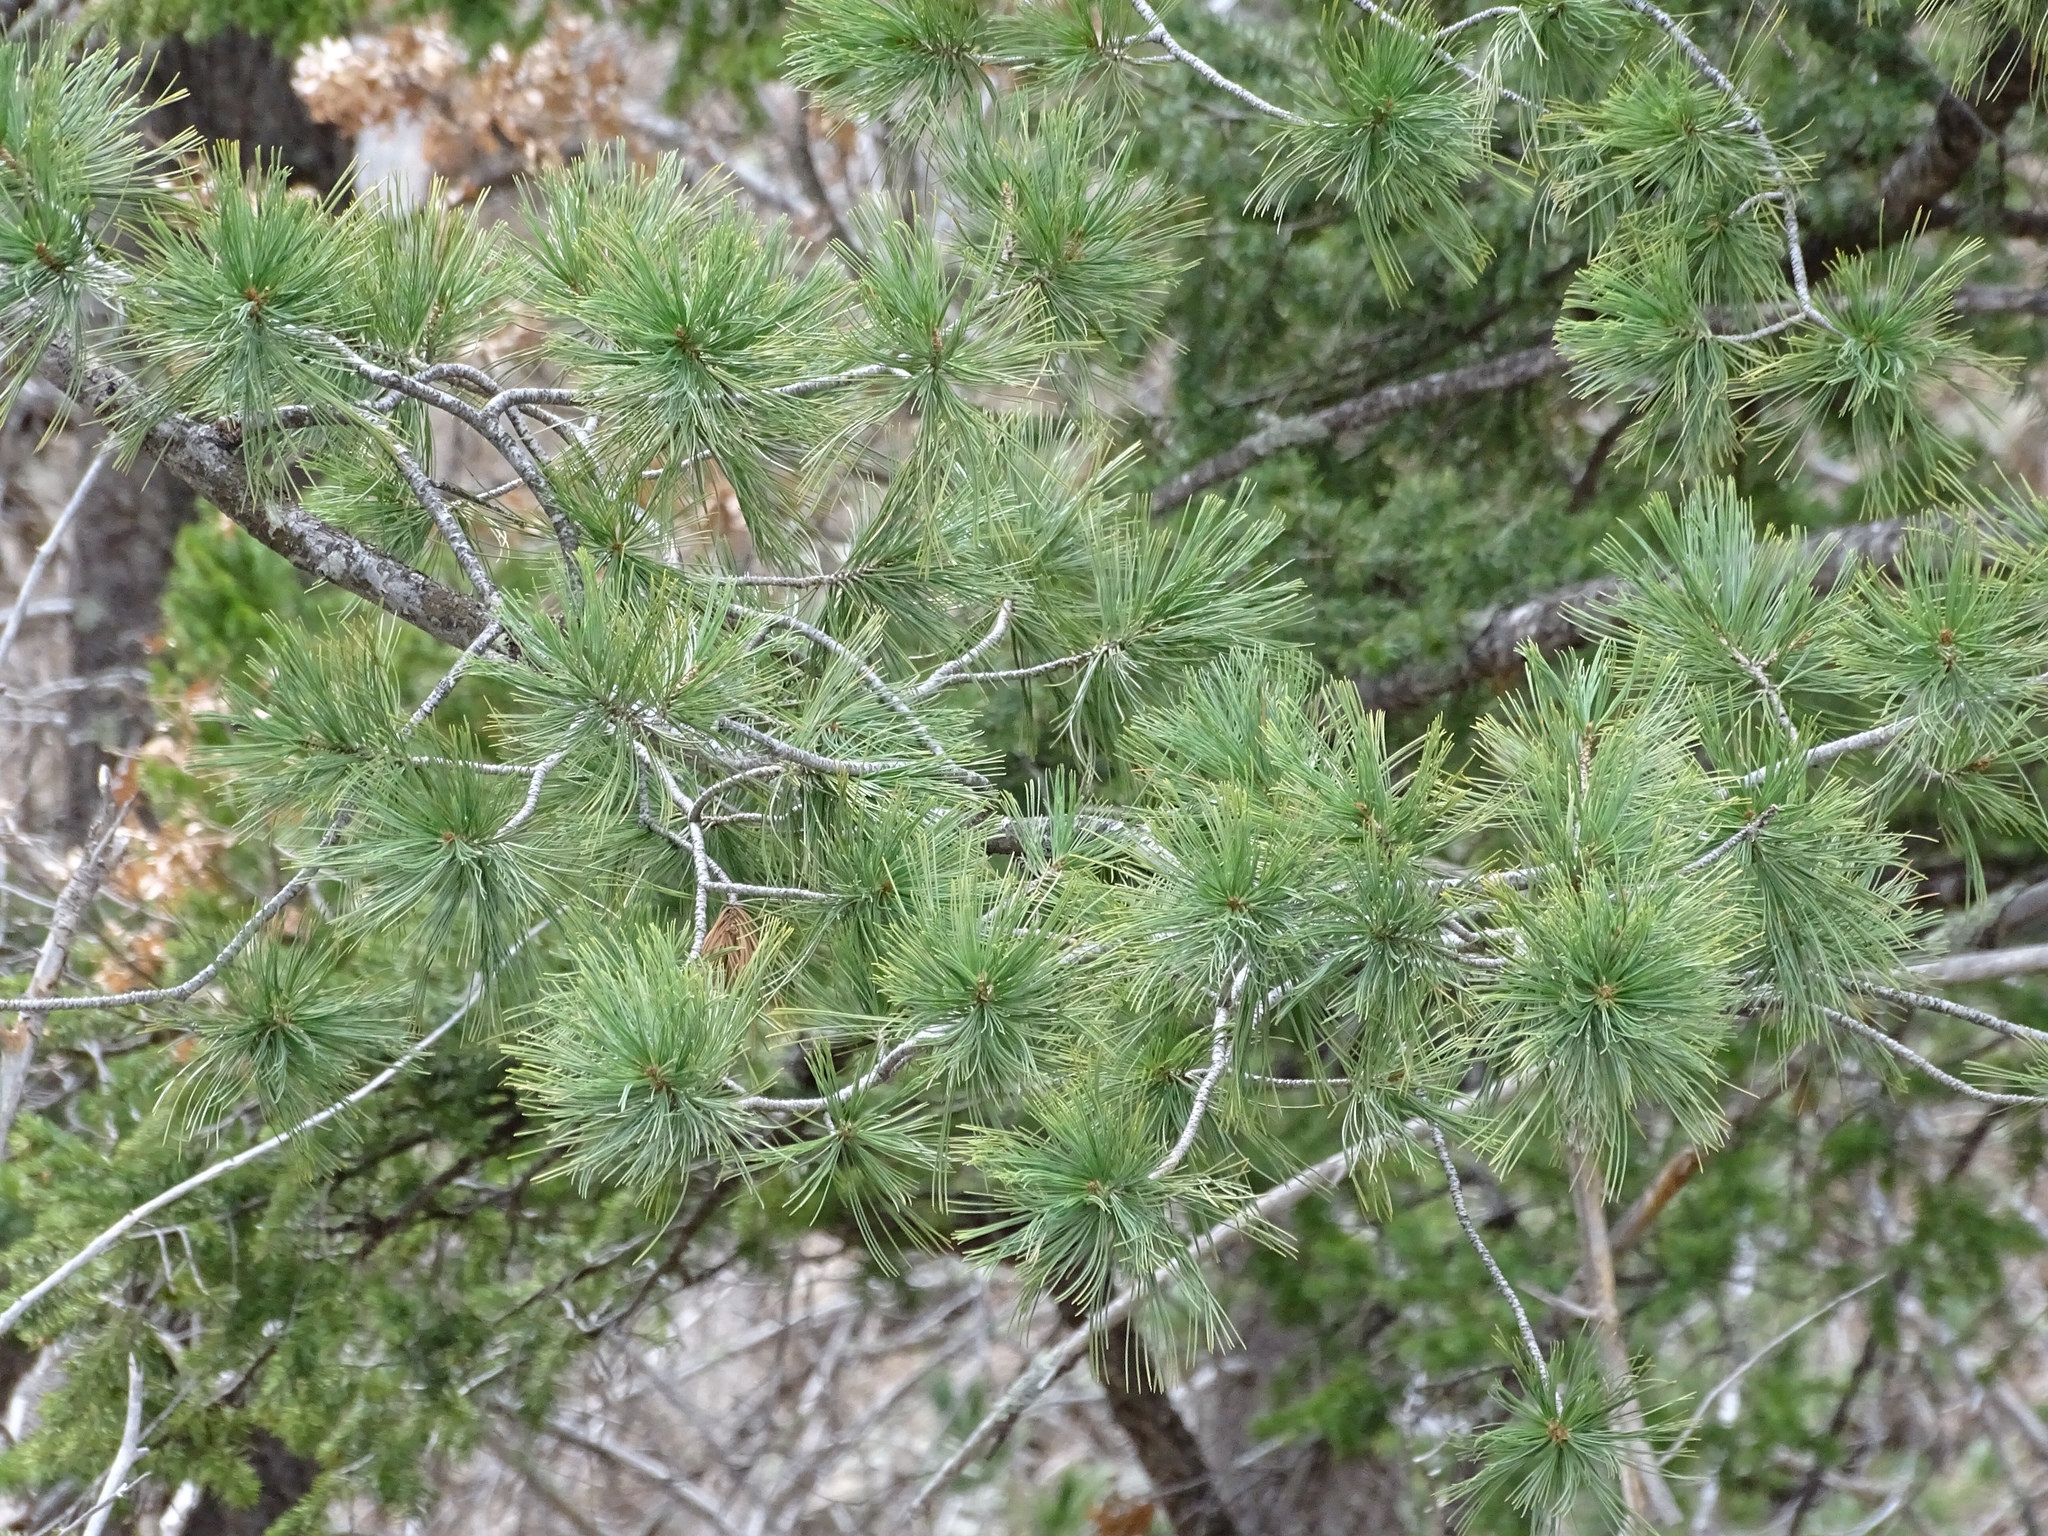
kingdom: Plantae
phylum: Tracheophyta
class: Pinopsida
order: Pinales
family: Pinaceae
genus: Pinus
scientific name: Pinus strobiformis
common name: Southwestern white pine
